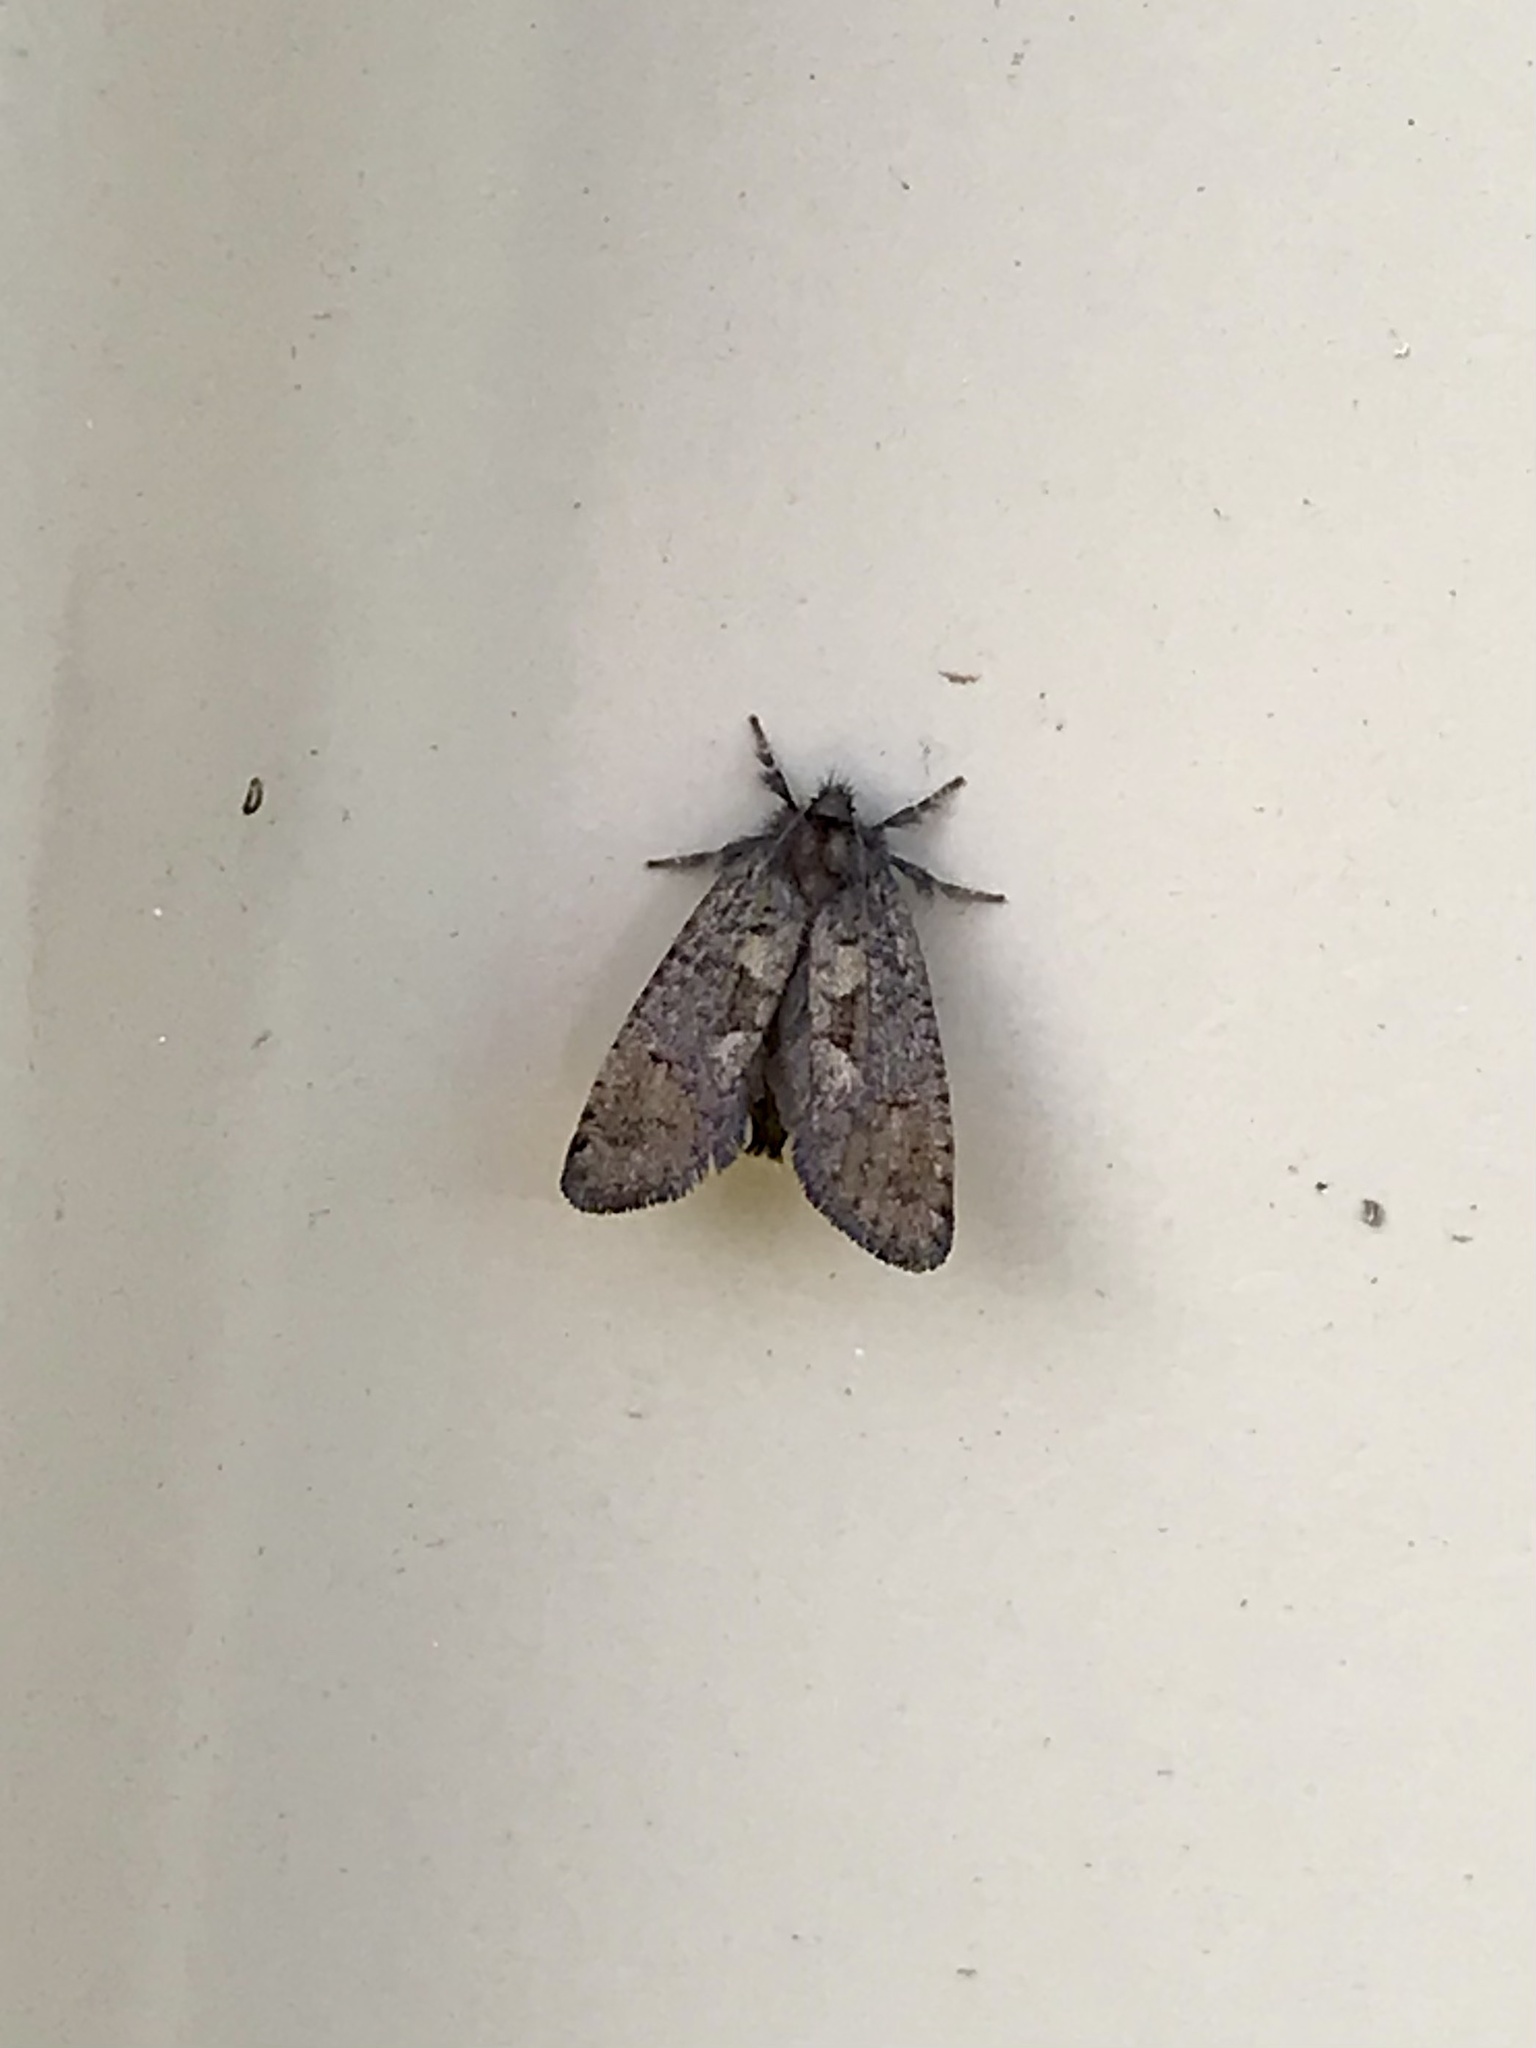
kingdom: Animalia
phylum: Arthropoda
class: Insecta
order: Lepidoptera
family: Tineidae
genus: Acrolophus
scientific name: Acrolophus mora
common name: Dark acrolophus
